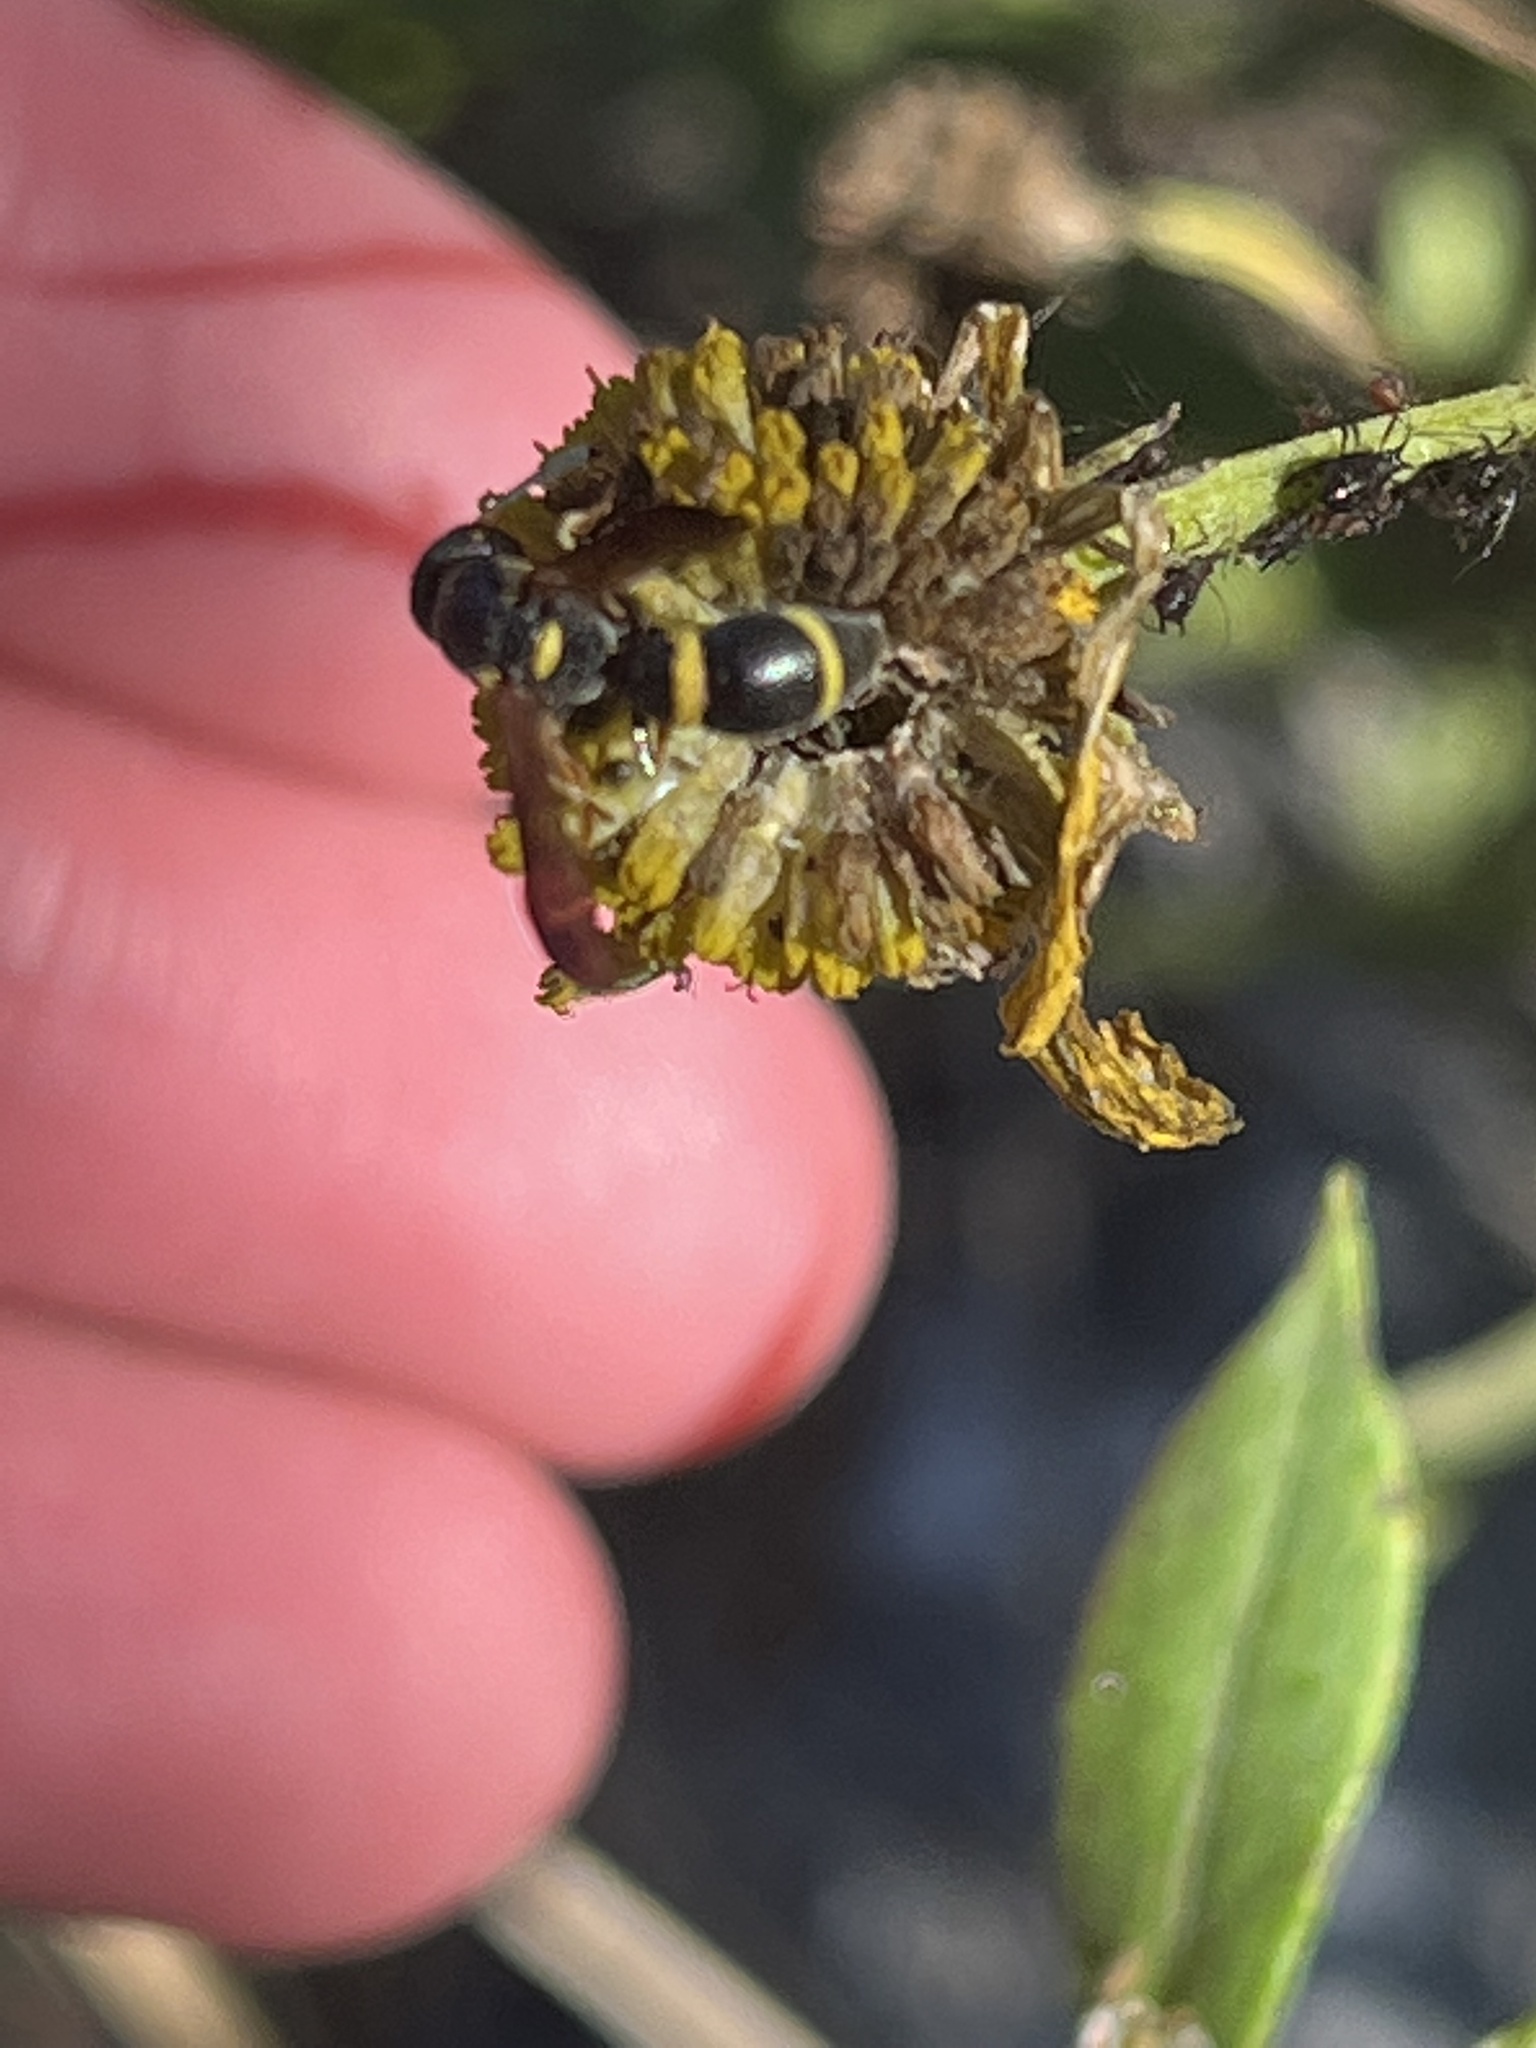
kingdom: Animalia
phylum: Arthropoda
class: Insecta
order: Hymenoptera
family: Eumenidae
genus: Parancistrocerus
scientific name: Parancistrocerus perennis
